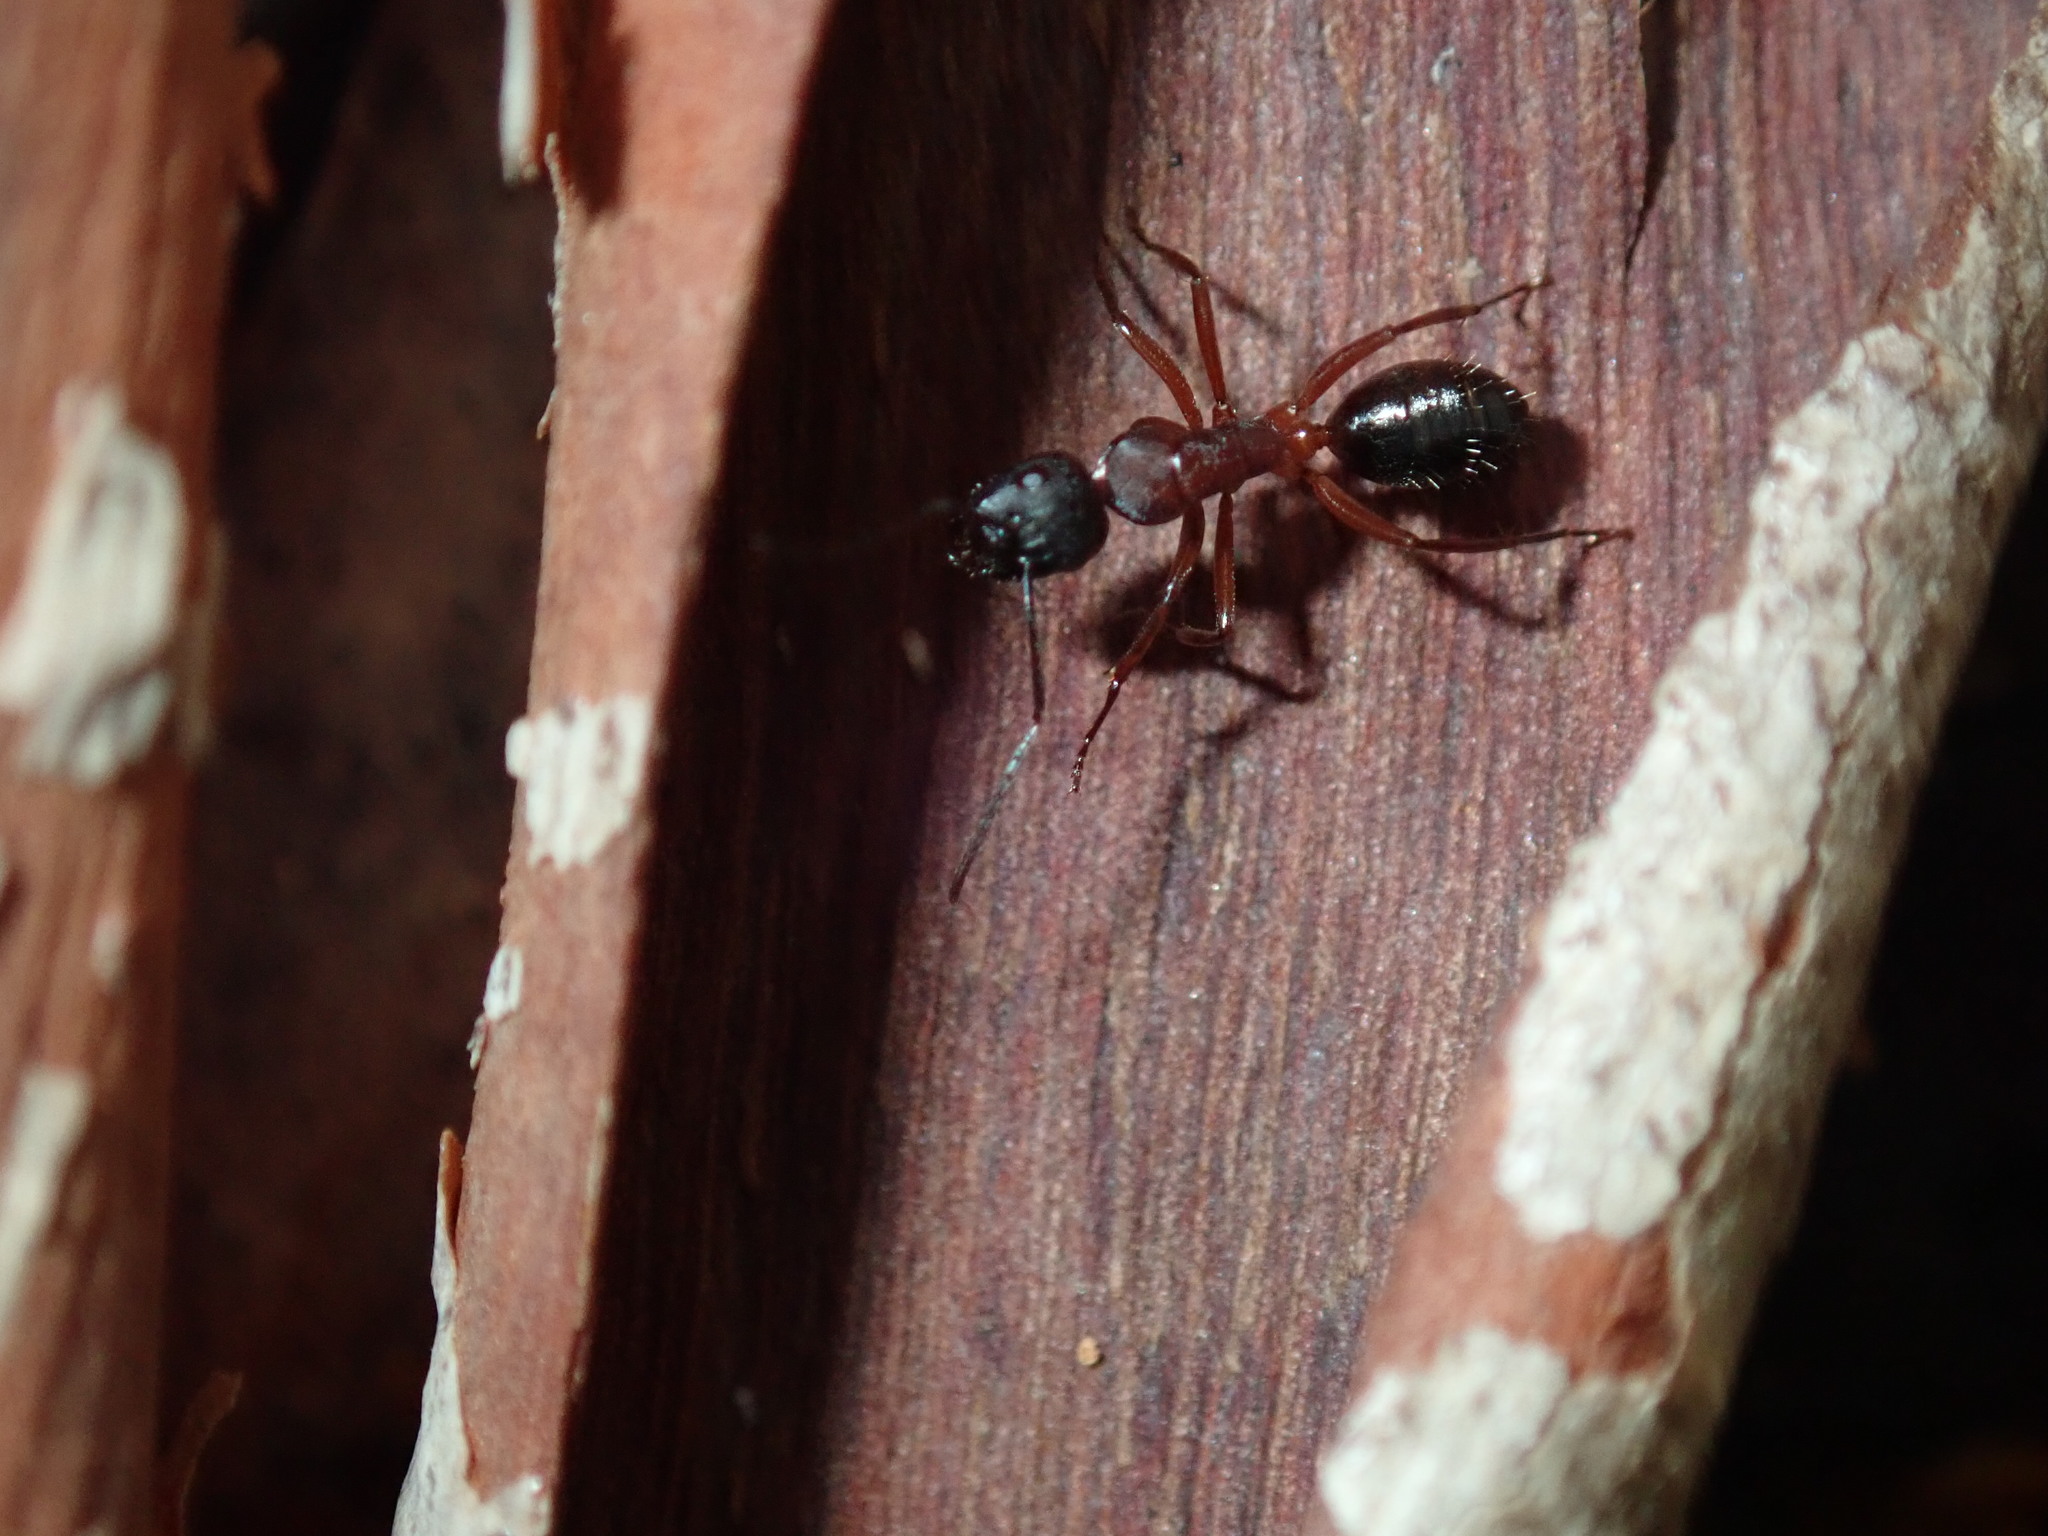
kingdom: Animalia
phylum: Arthropoda
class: Insecta
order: Hymenoptera
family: Formicidae
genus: Camponotus
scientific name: Camponotus innexus
